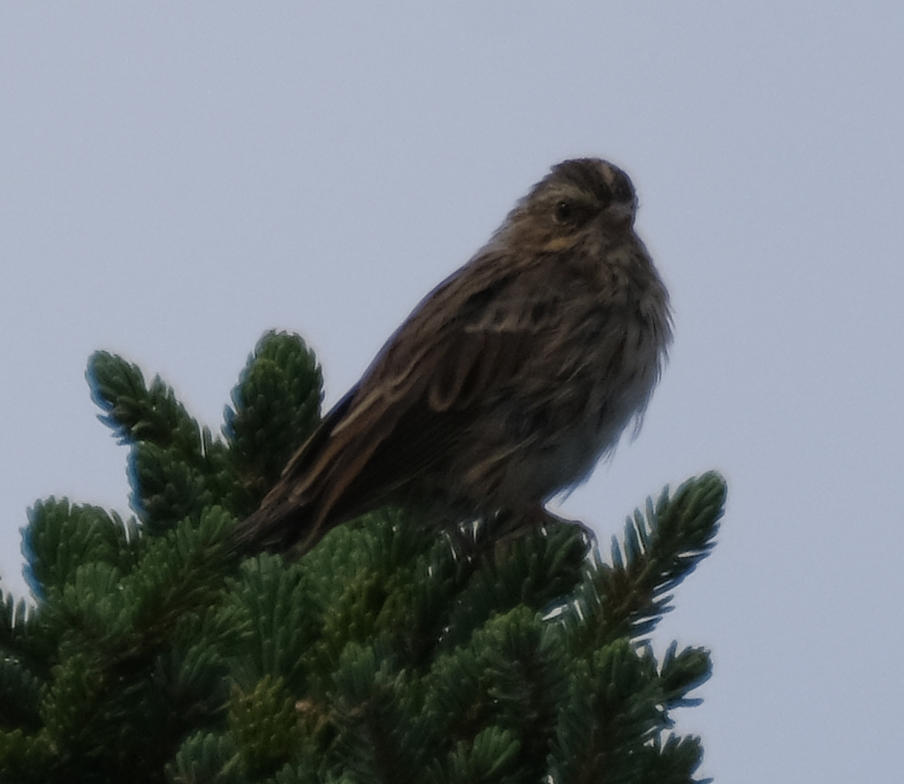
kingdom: Animalia
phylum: Chordata
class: Aves
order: Passeriformes
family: Passerellidae
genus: Passerculus
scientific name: Passerculus sandwichensis
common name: Savannah sparrow
